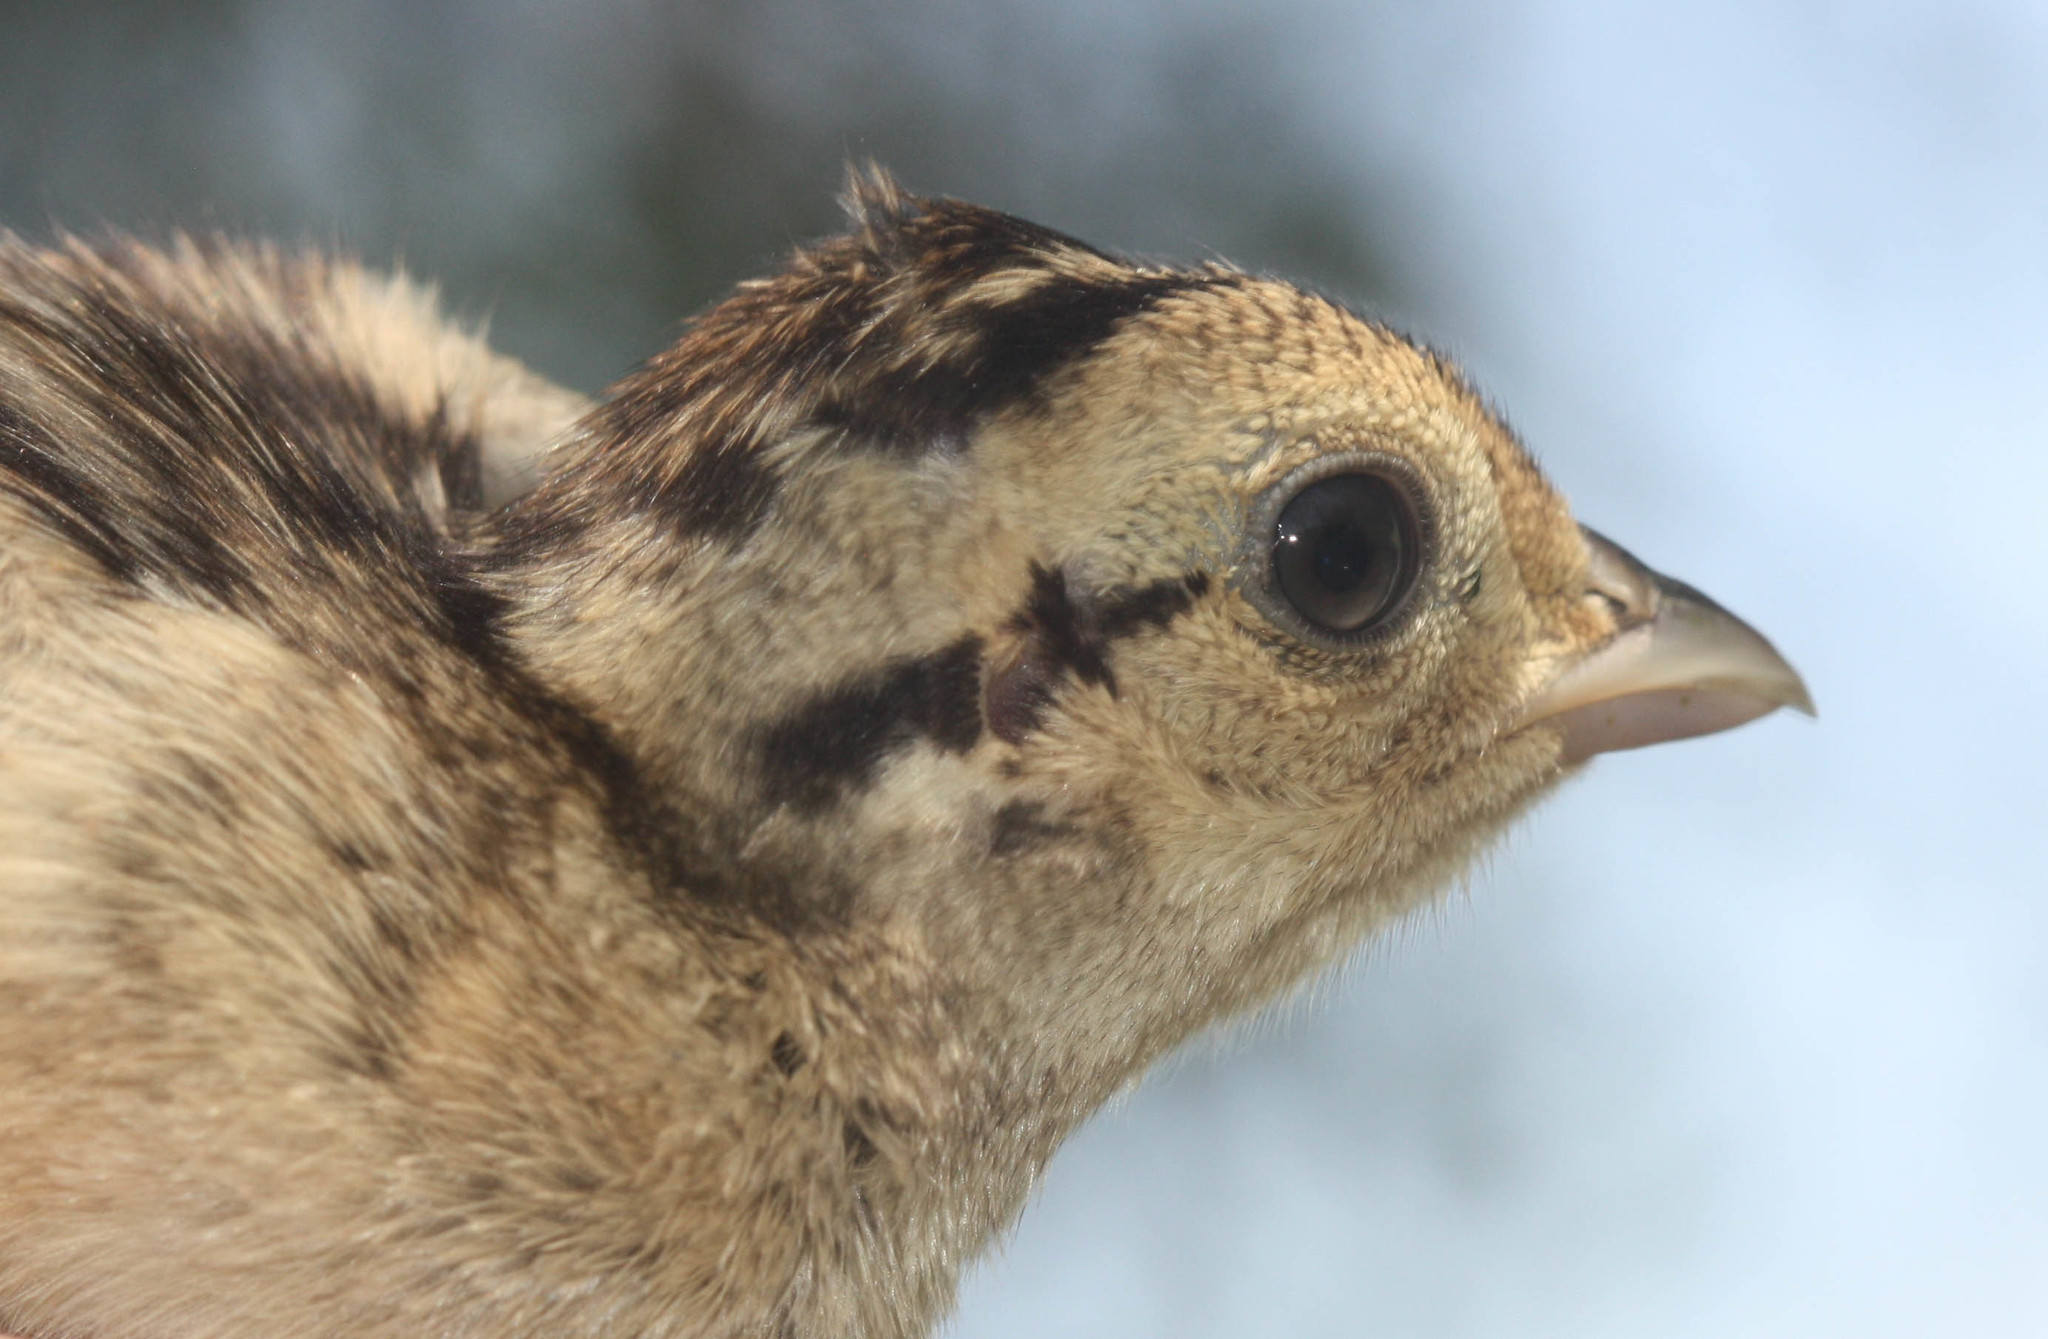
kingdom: Animalia
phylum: Chordata
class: Aves
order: Galliformes
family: Phasianidae
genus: Phasianus
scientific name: Phasianus colchicus
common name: Common pheasant
